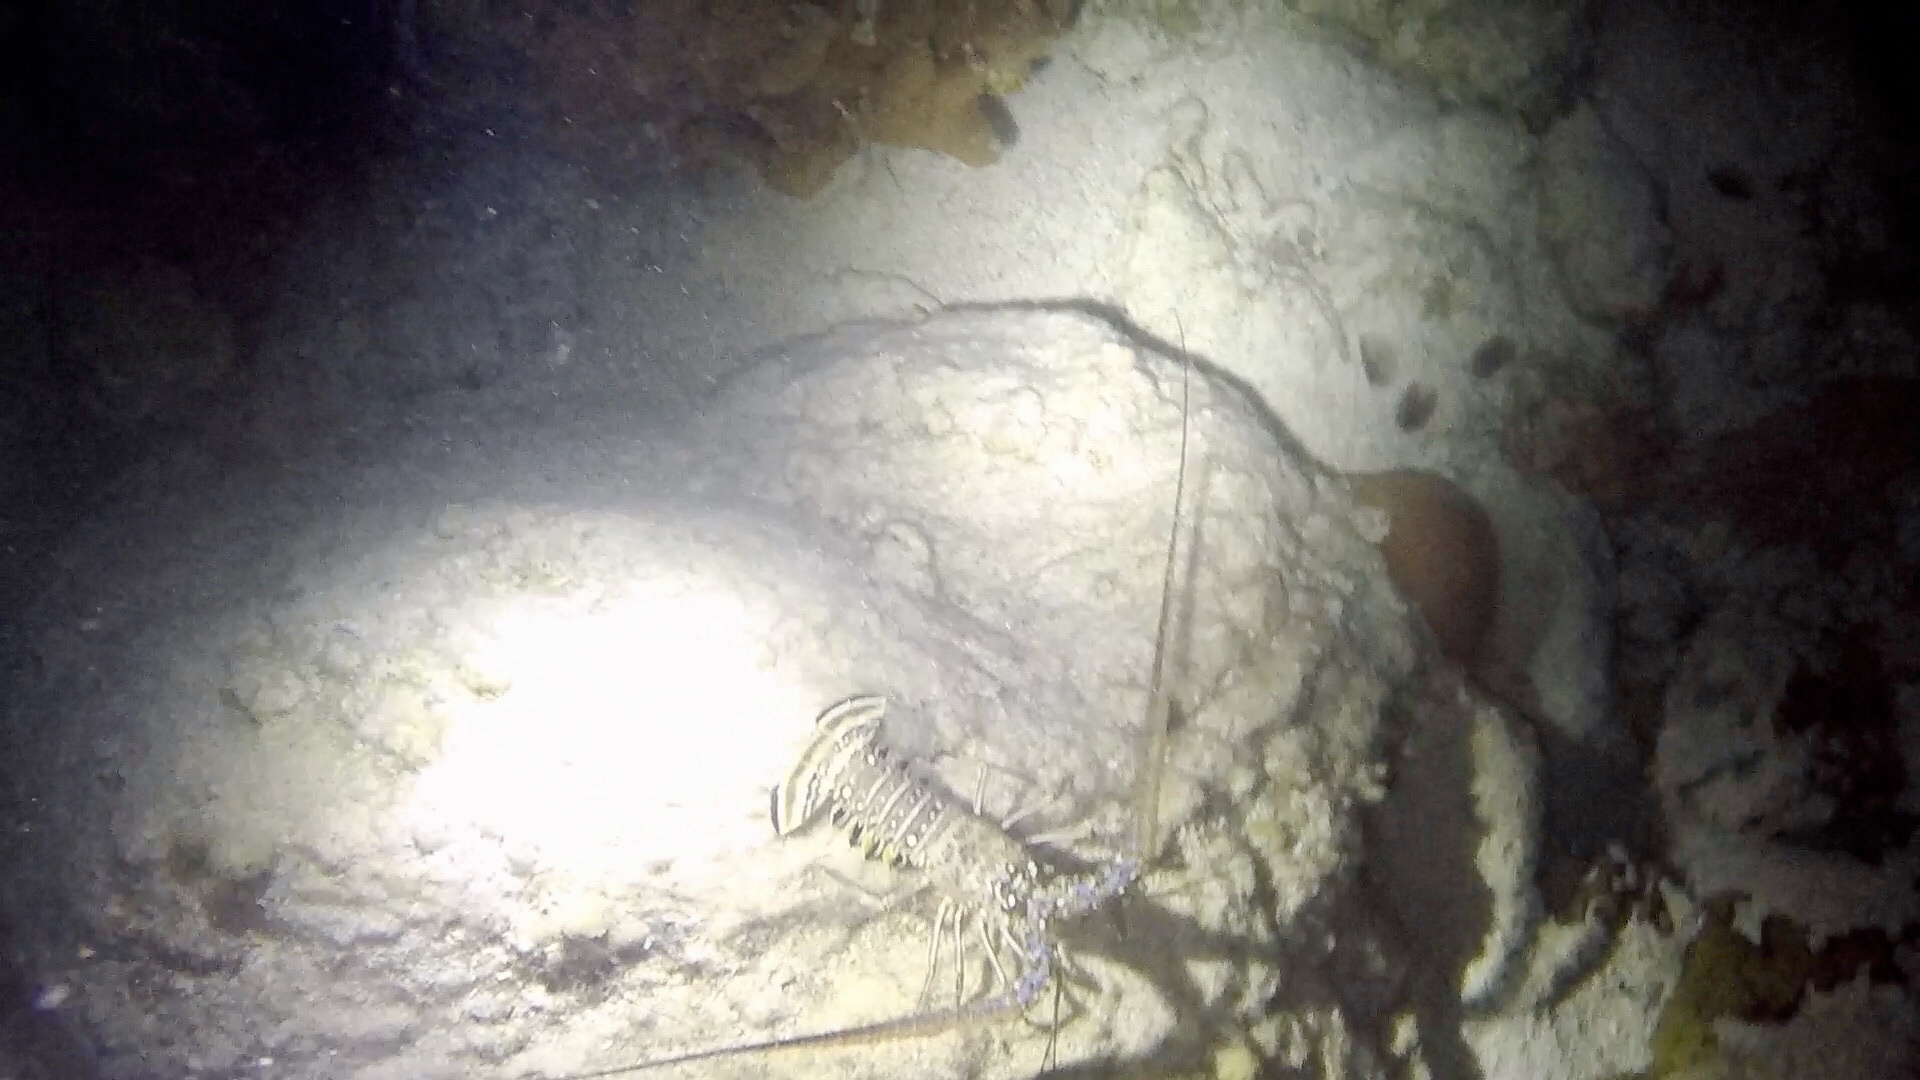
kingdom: Animalia
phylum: Arthropoda
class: Malacostraca
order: Decapoda
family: Palinuridae
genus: Panulirus
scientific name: Panulirus argus
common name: Caribbean spiny lobster
